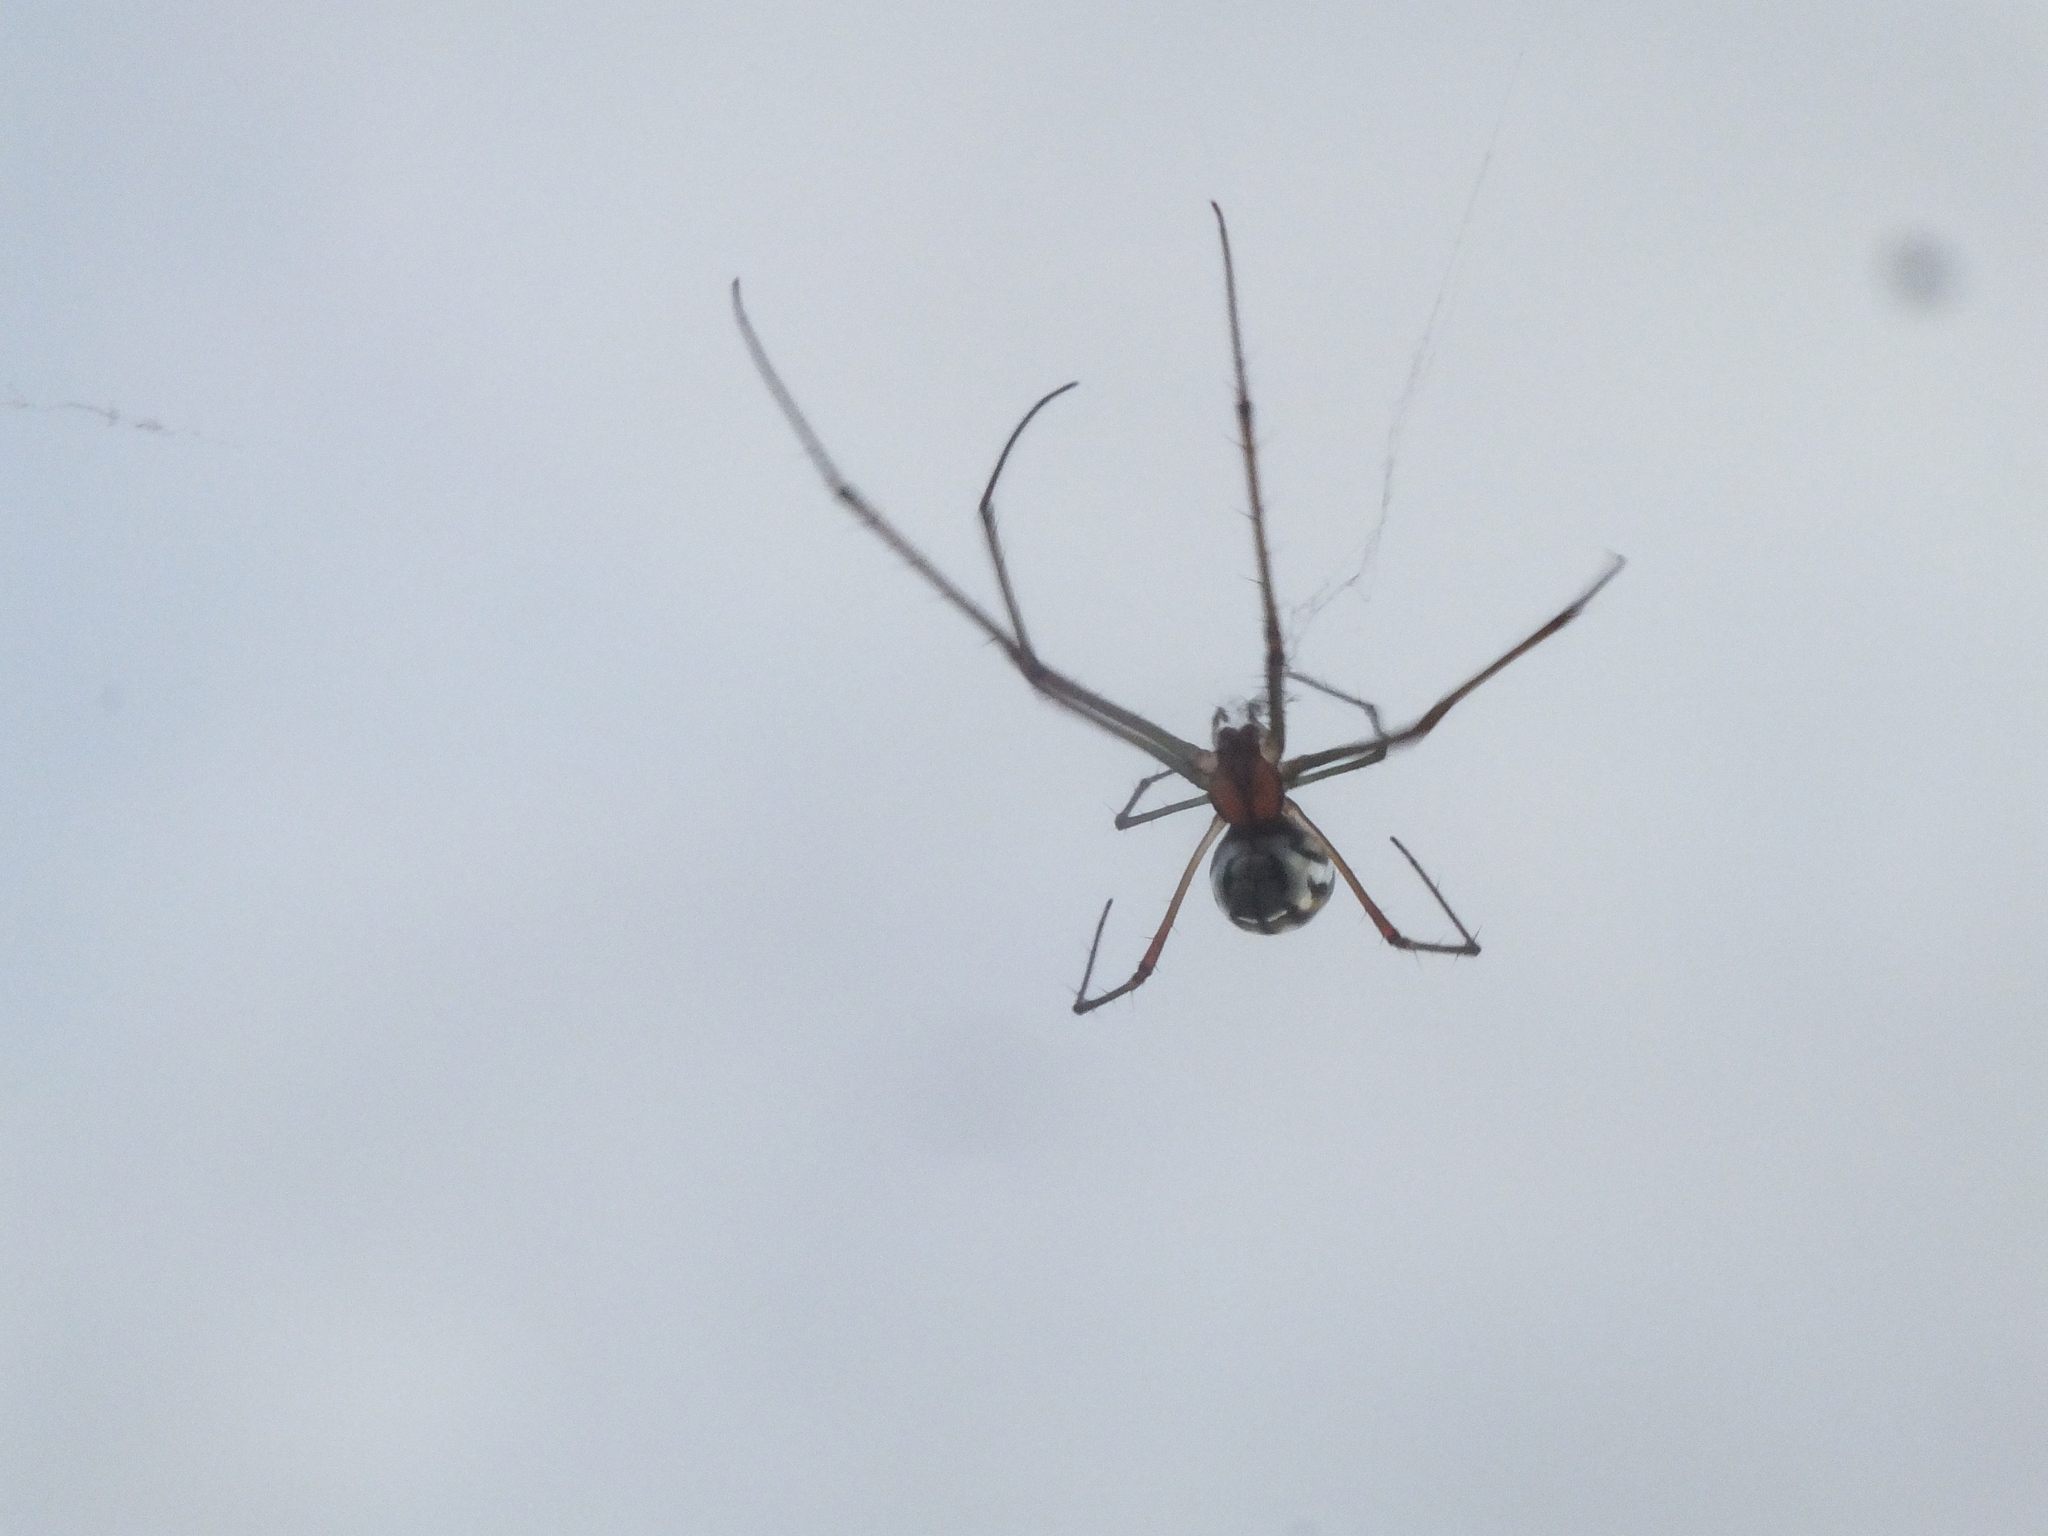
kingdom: Animalia
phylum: Arthropoda
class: Arachnida
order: Araneae
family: Tetragnathidae
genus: Leucauge
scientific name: Leucauge argyra
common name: Longjawed orb weavers
